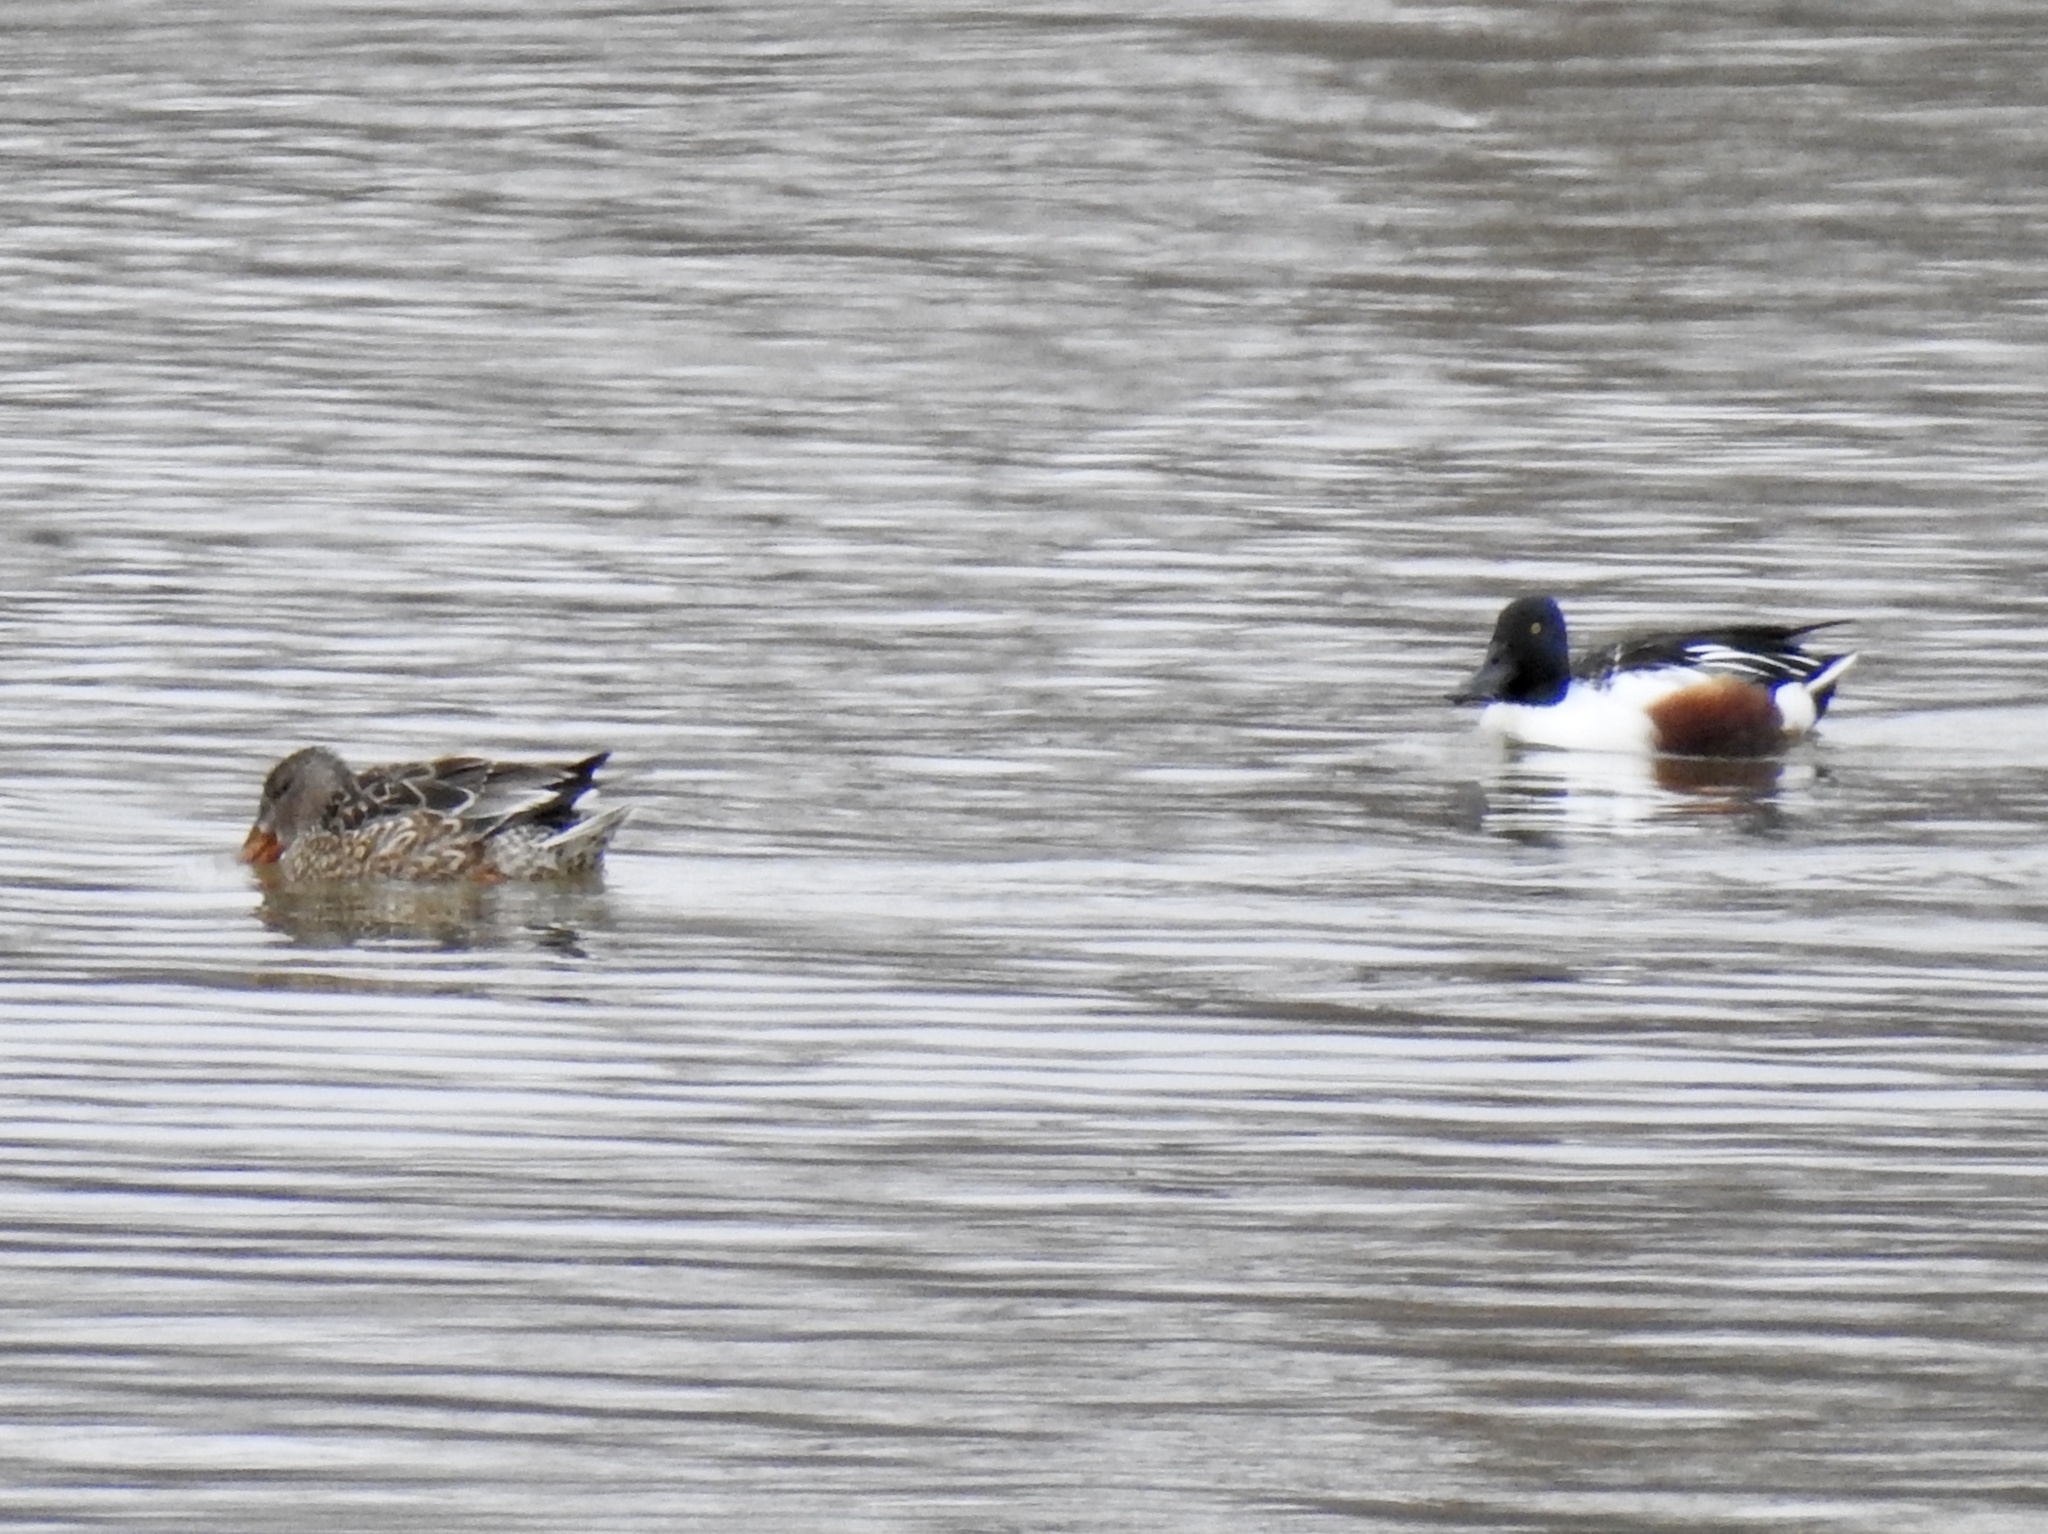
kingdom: Animalia
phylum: Chordata
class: Aves
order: Anseriformes
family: Anatidae
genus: Spatula
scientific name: Spatula clypeata
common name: Northern shoveler
